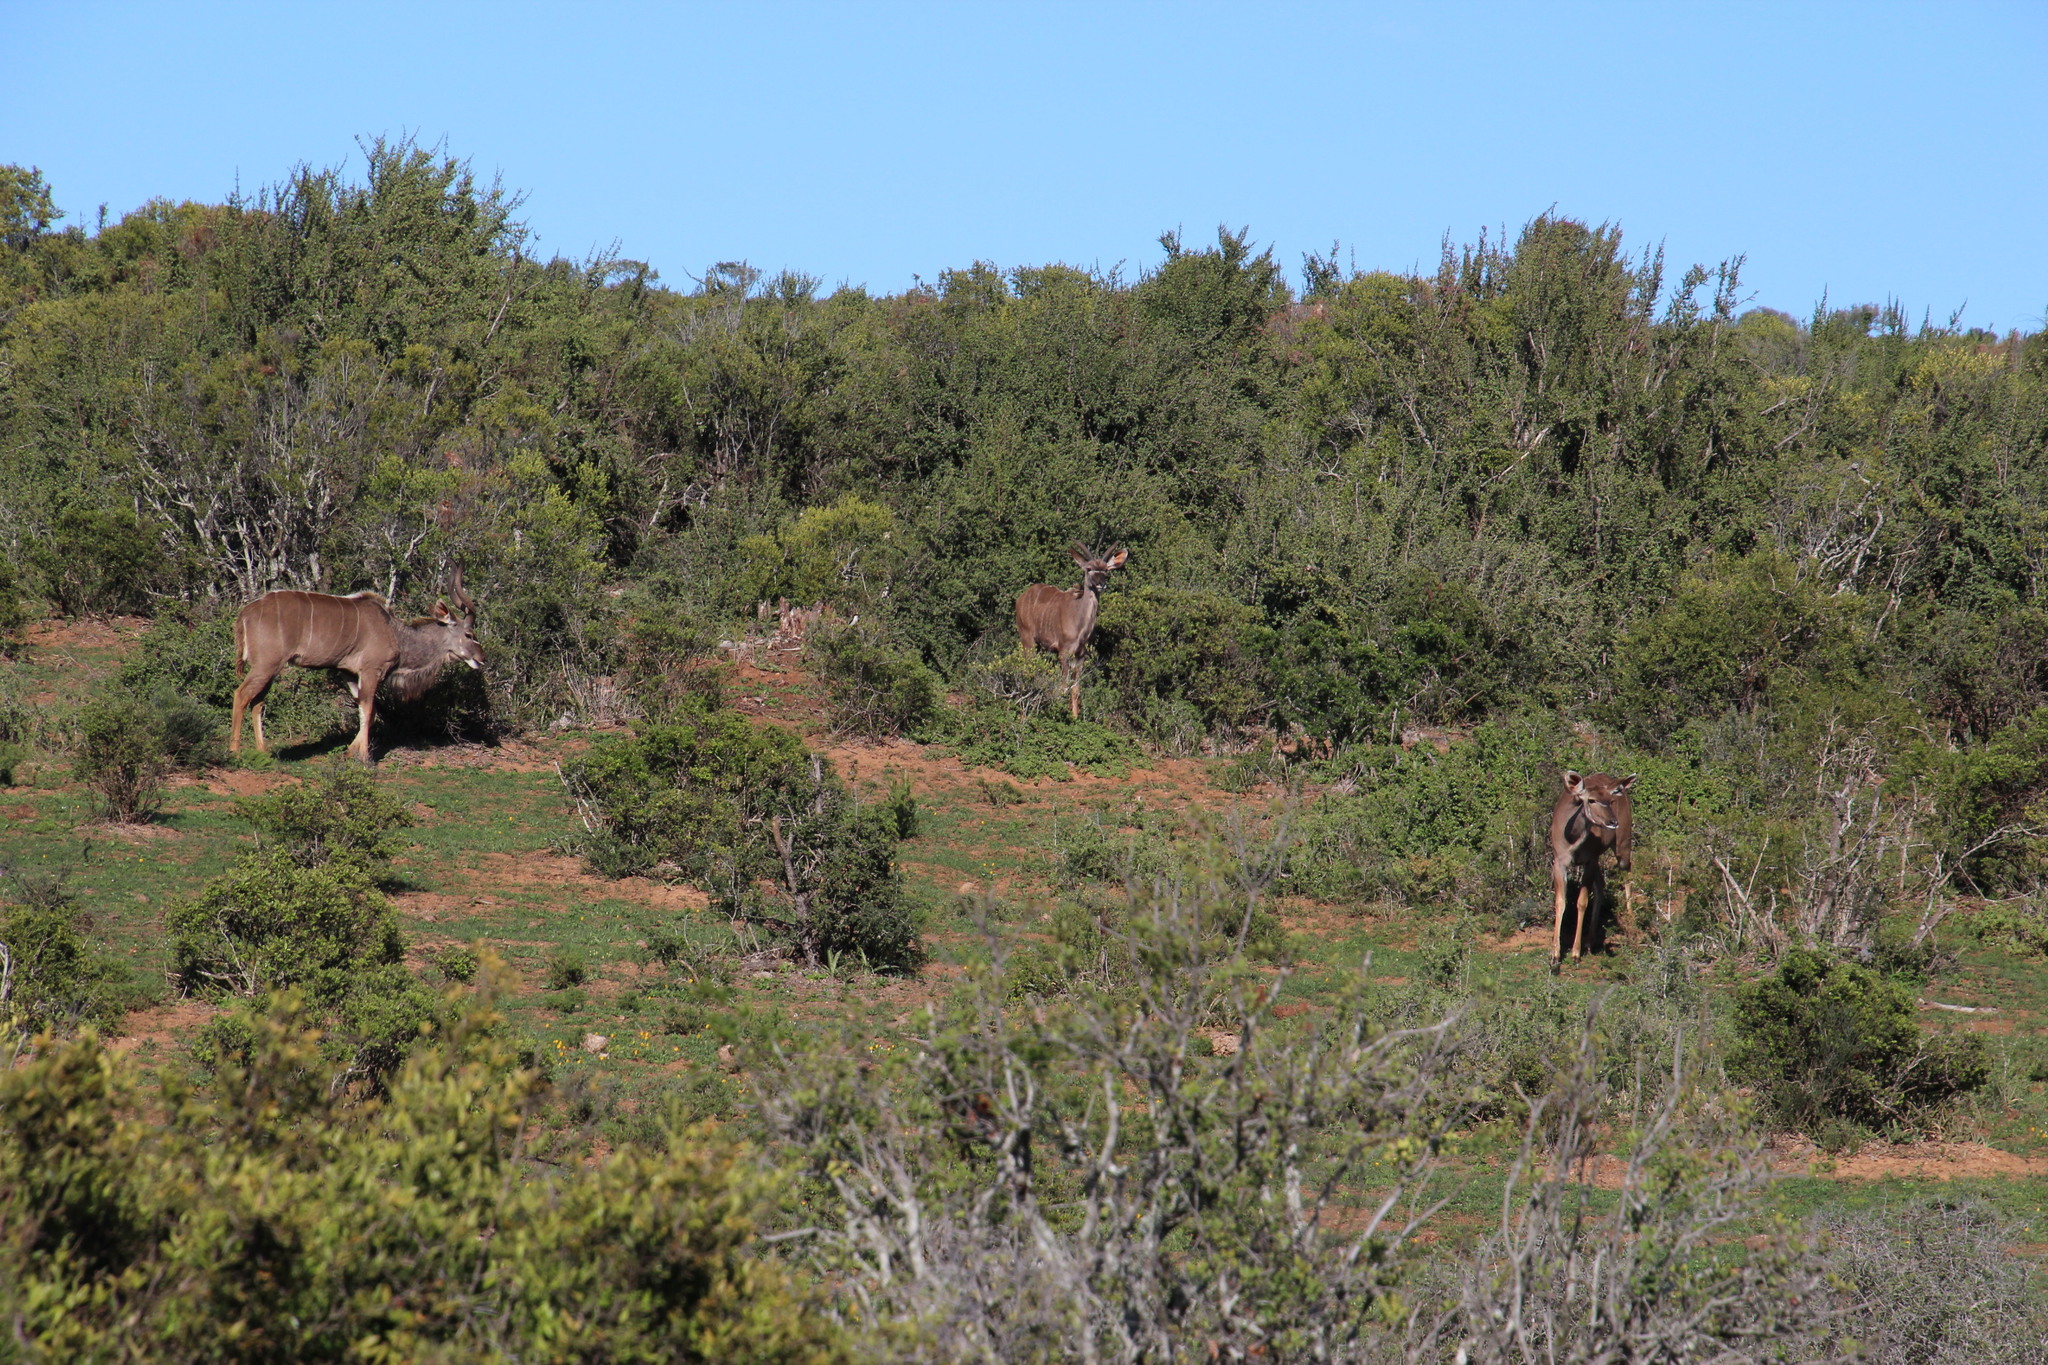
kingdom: Animalia
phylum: Chordata
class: Mammalia
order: Artiodactyla
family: Bovidae
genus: Tragelaphus
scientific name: Tragelaphus strepsiceros
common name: Greater kudu
